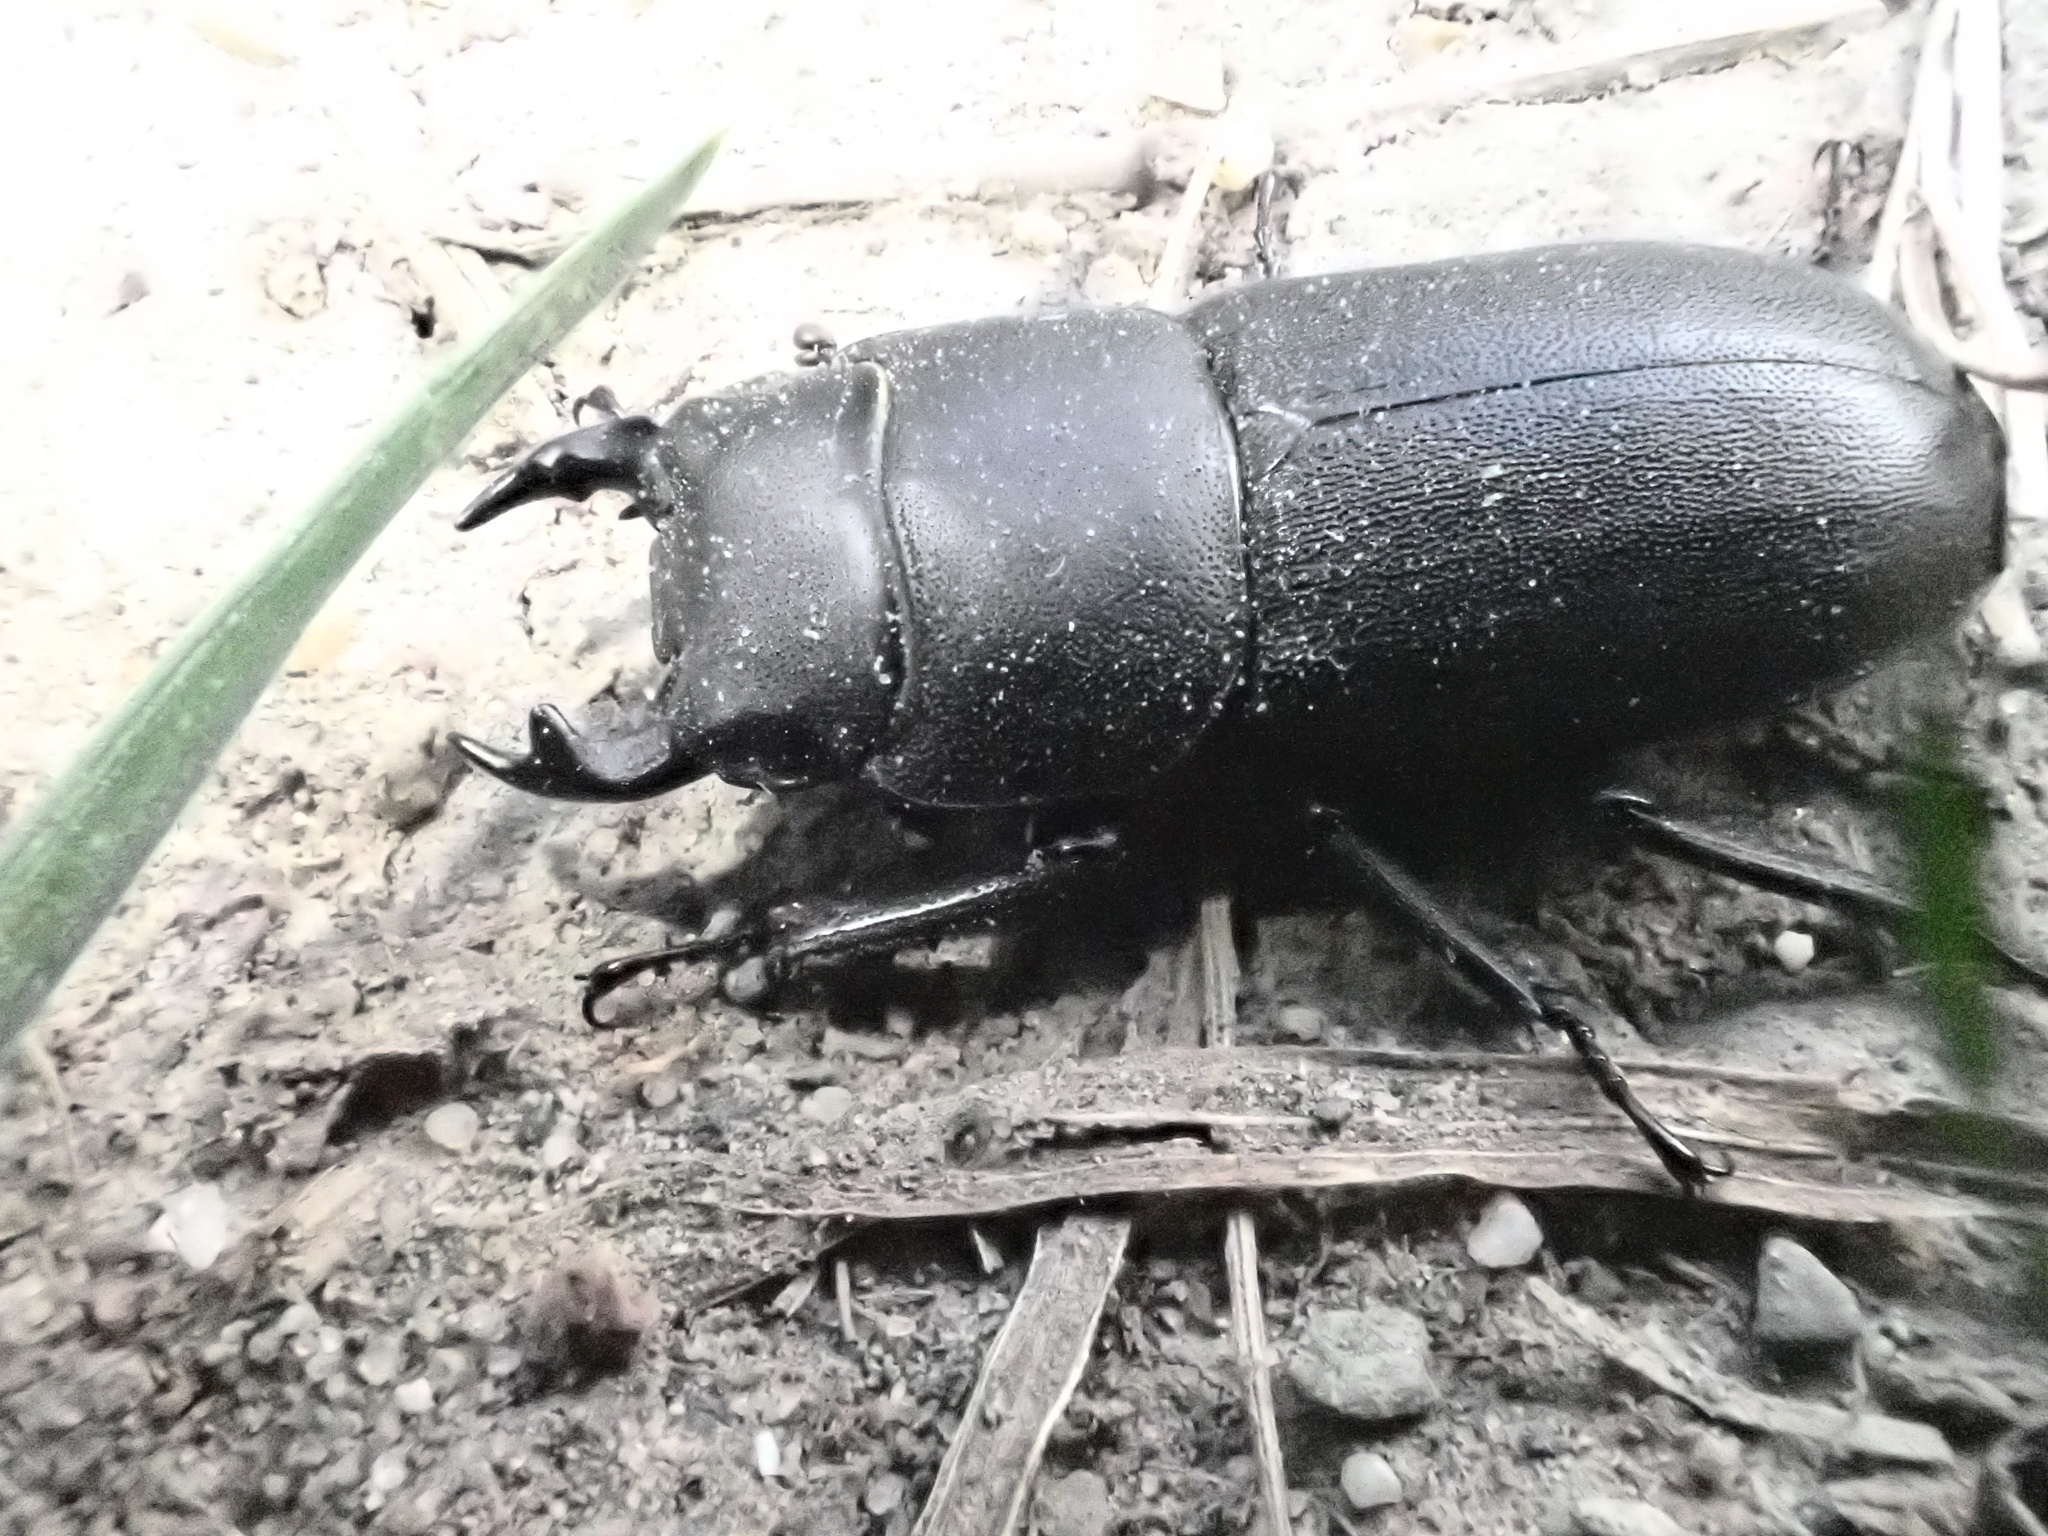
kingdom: Animalia
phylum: Arthropoda
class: Insecta
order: Coleoptera
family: Lucanidae
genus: Dorcus
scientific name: Dorcus parallelipipedus
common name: Lesser stag beetle
